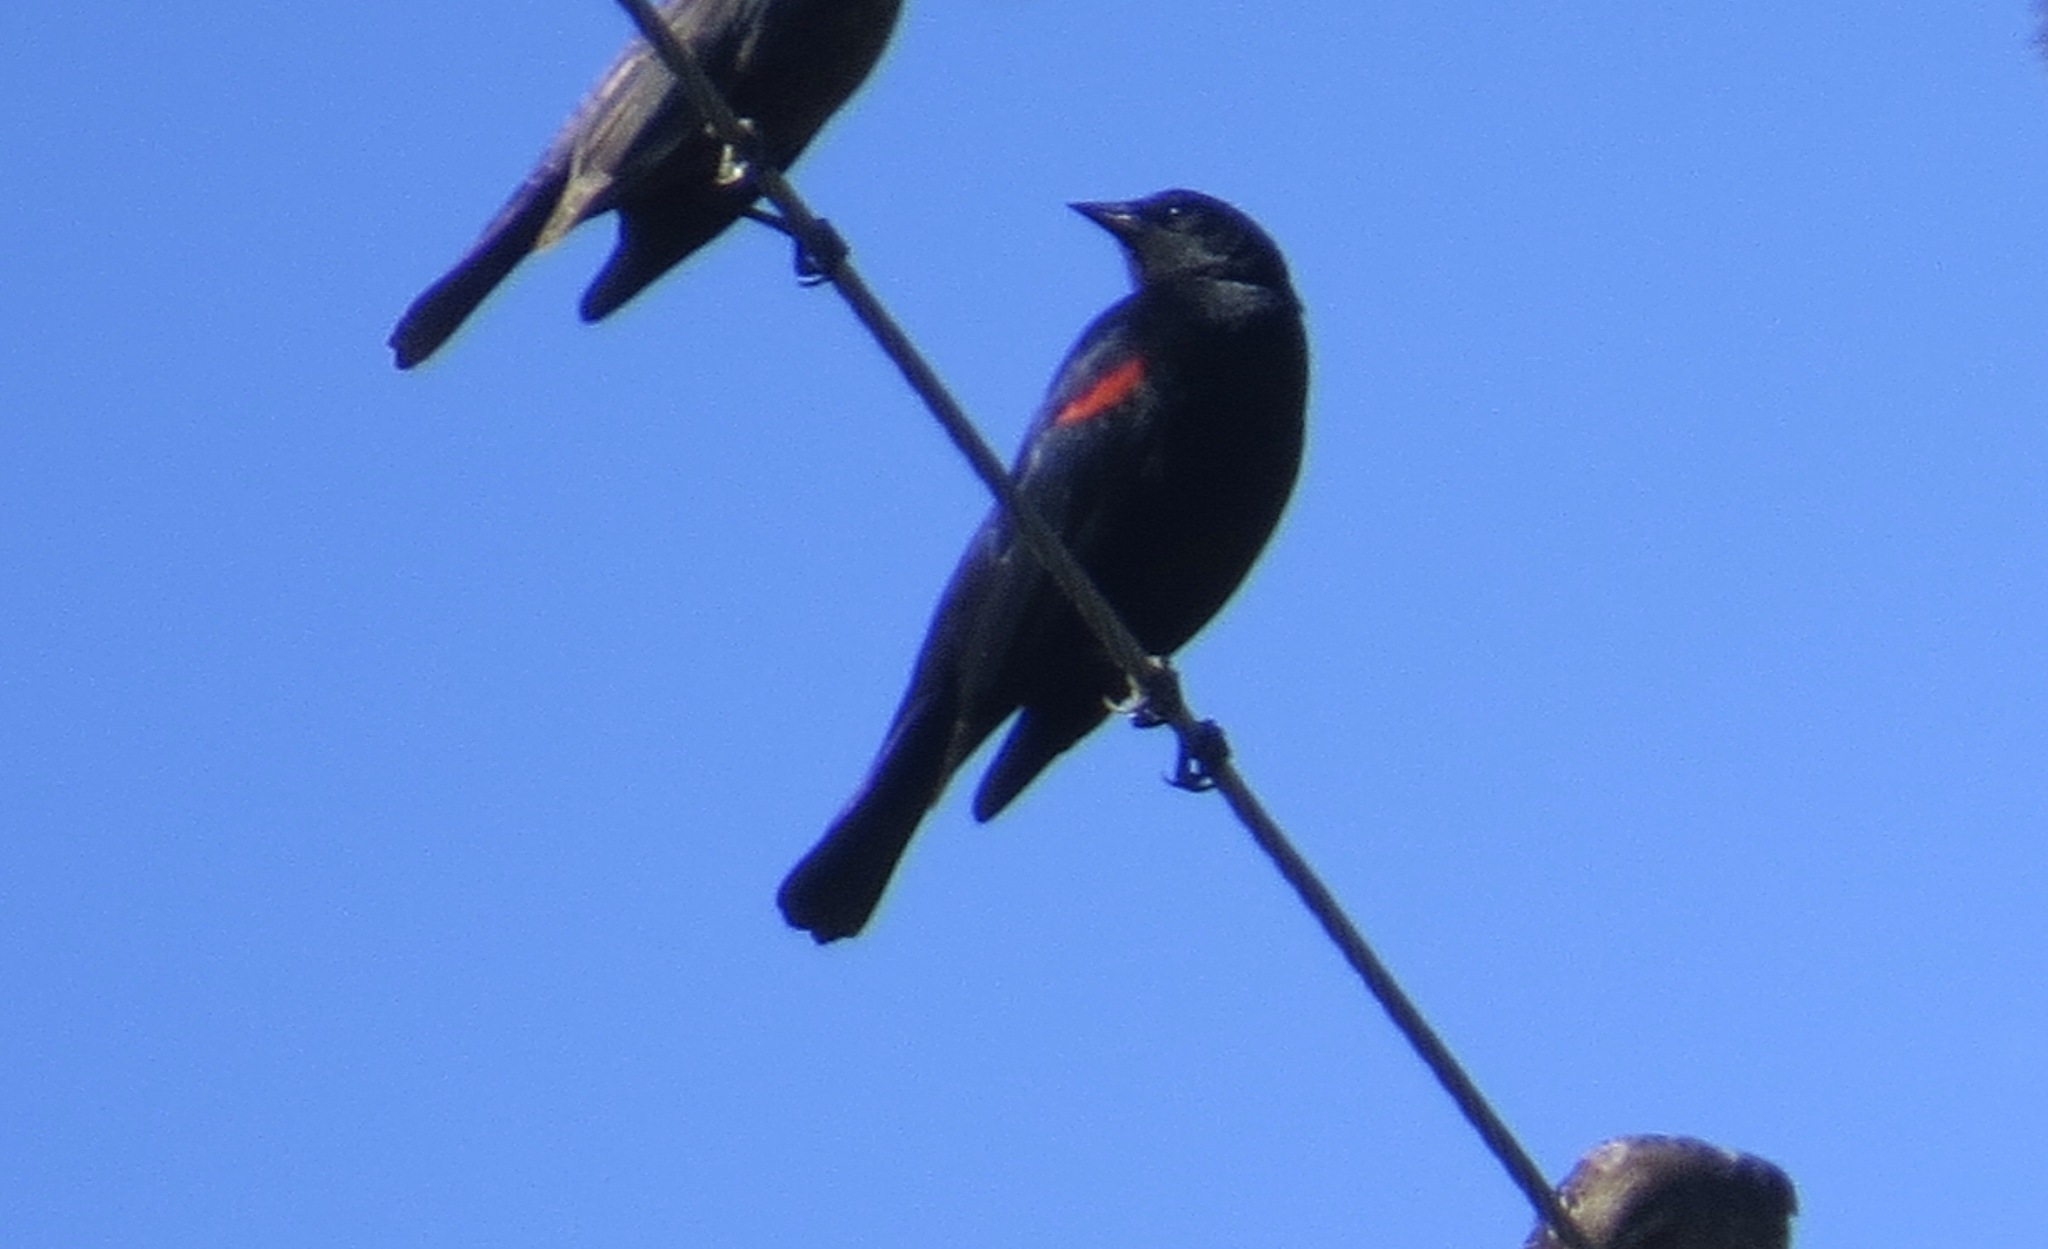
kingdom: Animalia
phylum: Chordata
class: Aves
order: Passeriformes
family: Icteridae
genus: Agelaius
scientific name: Agelaius phoeniceus
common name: Red-winged blackbird
